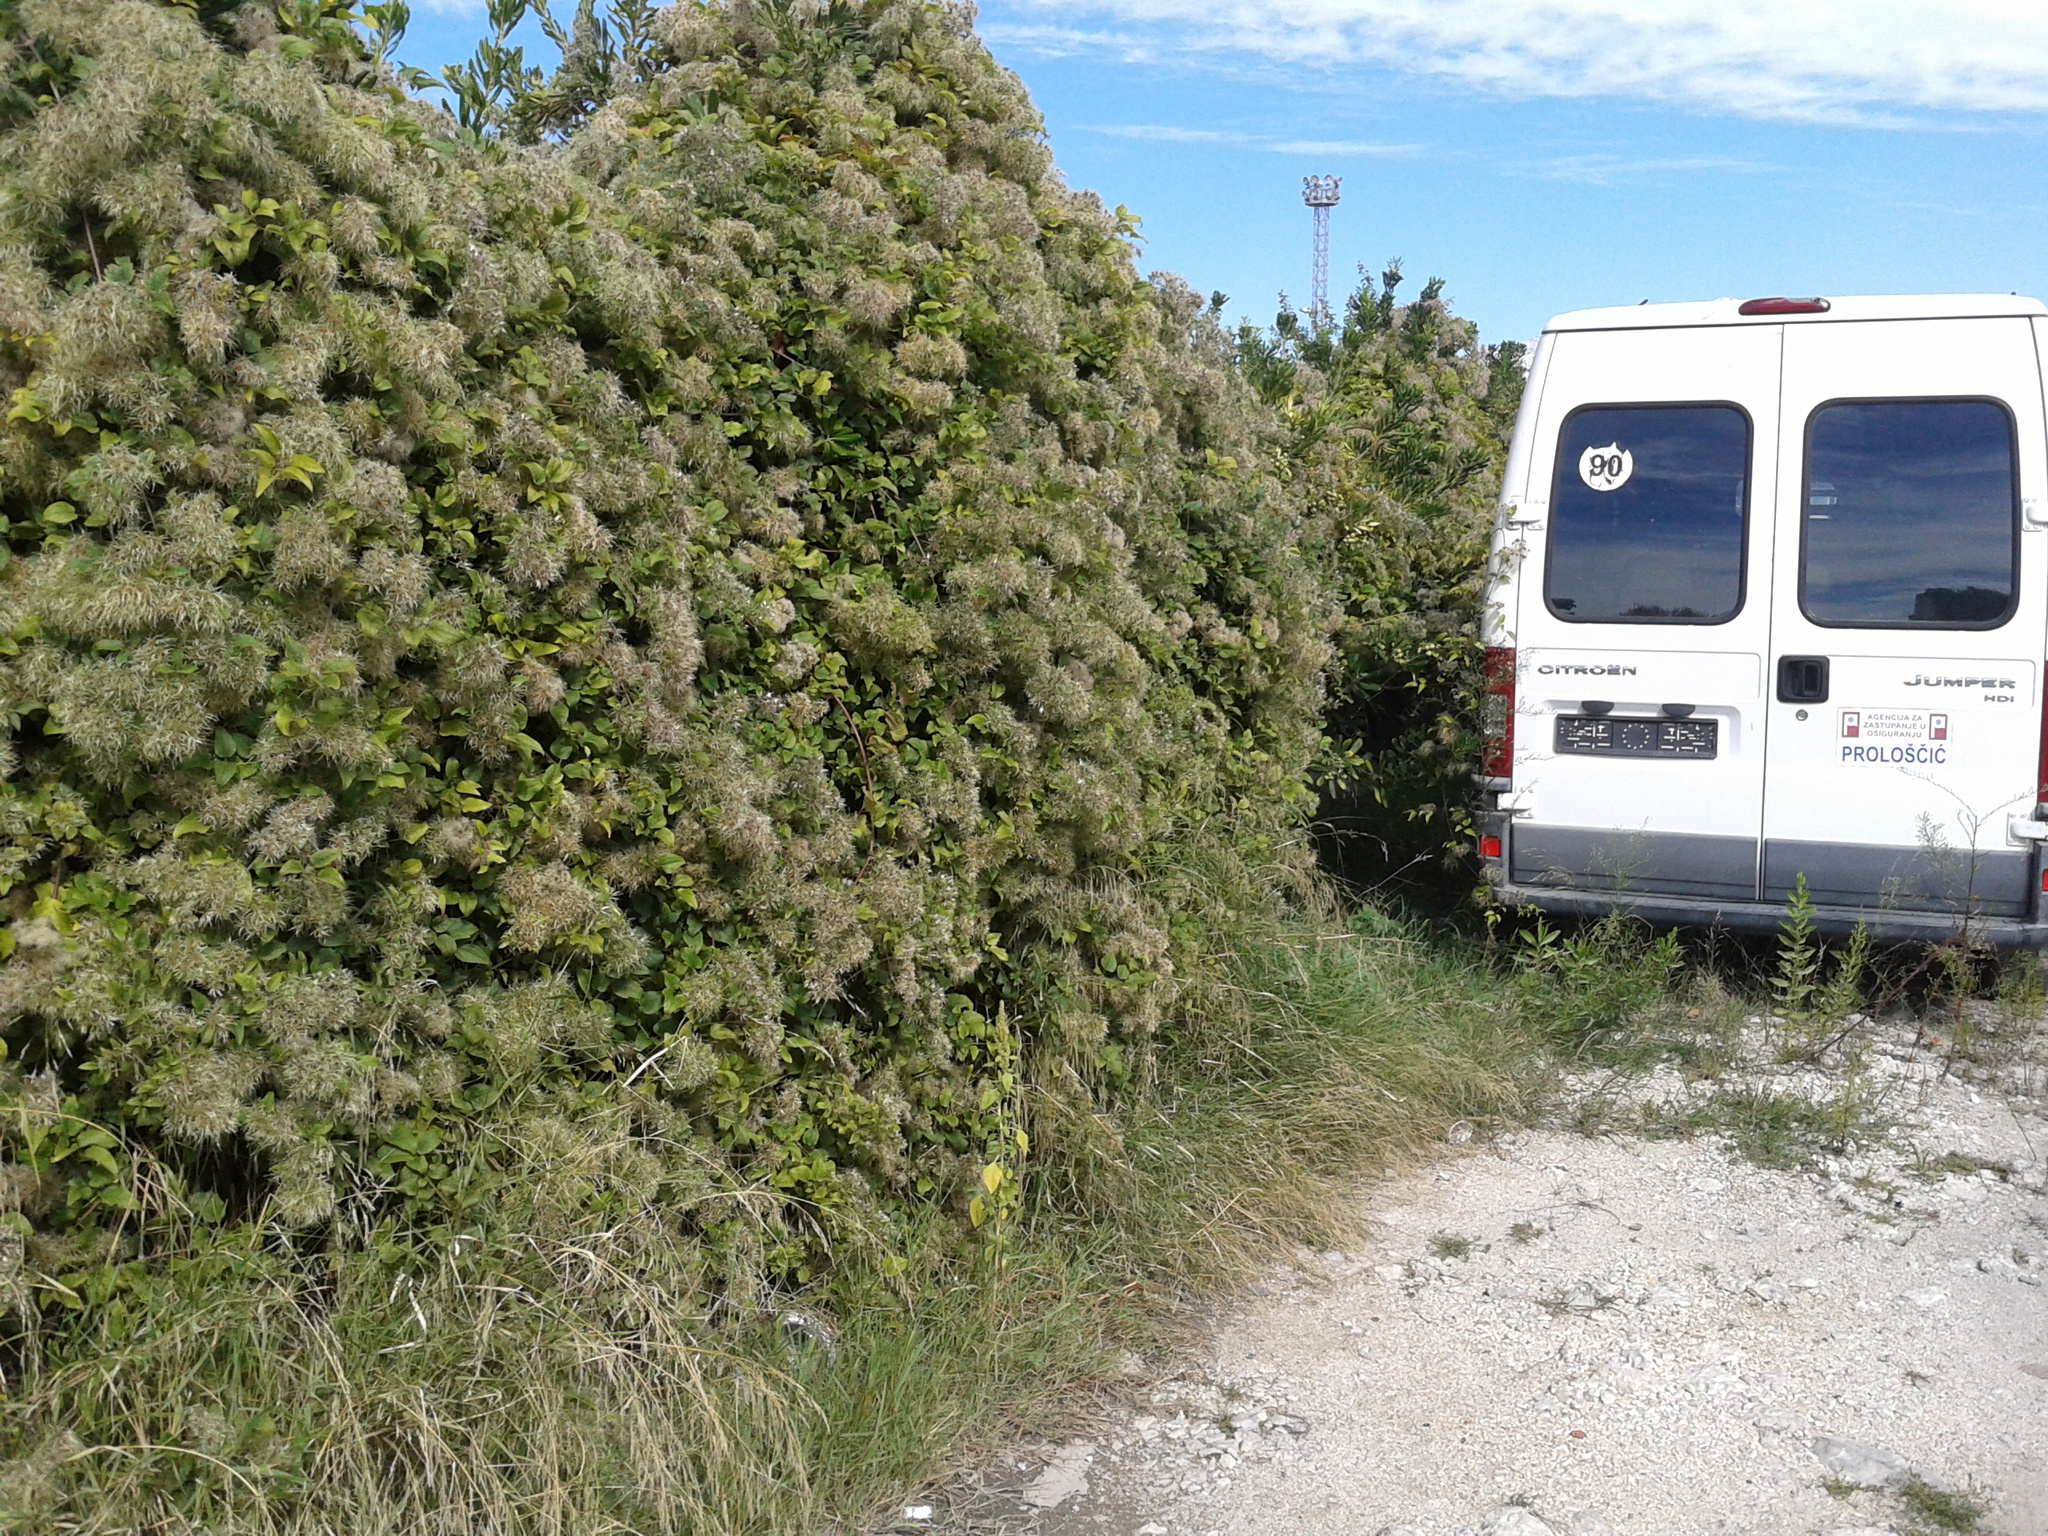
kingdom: Plantae
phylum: Tracheophyta
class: Magnoliopsida
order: Ranunculales
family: Ranunculaceae
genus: Clematis
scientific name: Clematis vitalba
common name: Evergreen clematis
